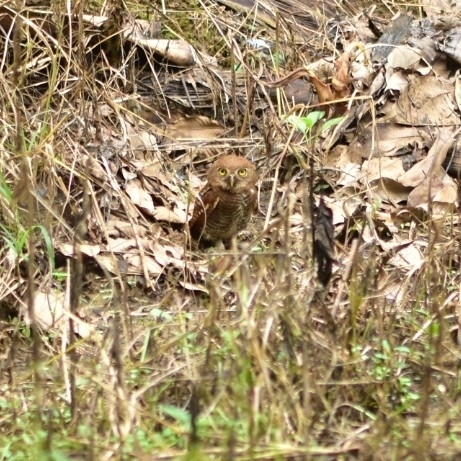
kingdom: Animalia
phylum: Chordata
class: Aves
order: Strigiformes
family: Strigidae
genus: Glaucidium
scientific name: Glaucidium radiatum
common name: Jungle owlet
